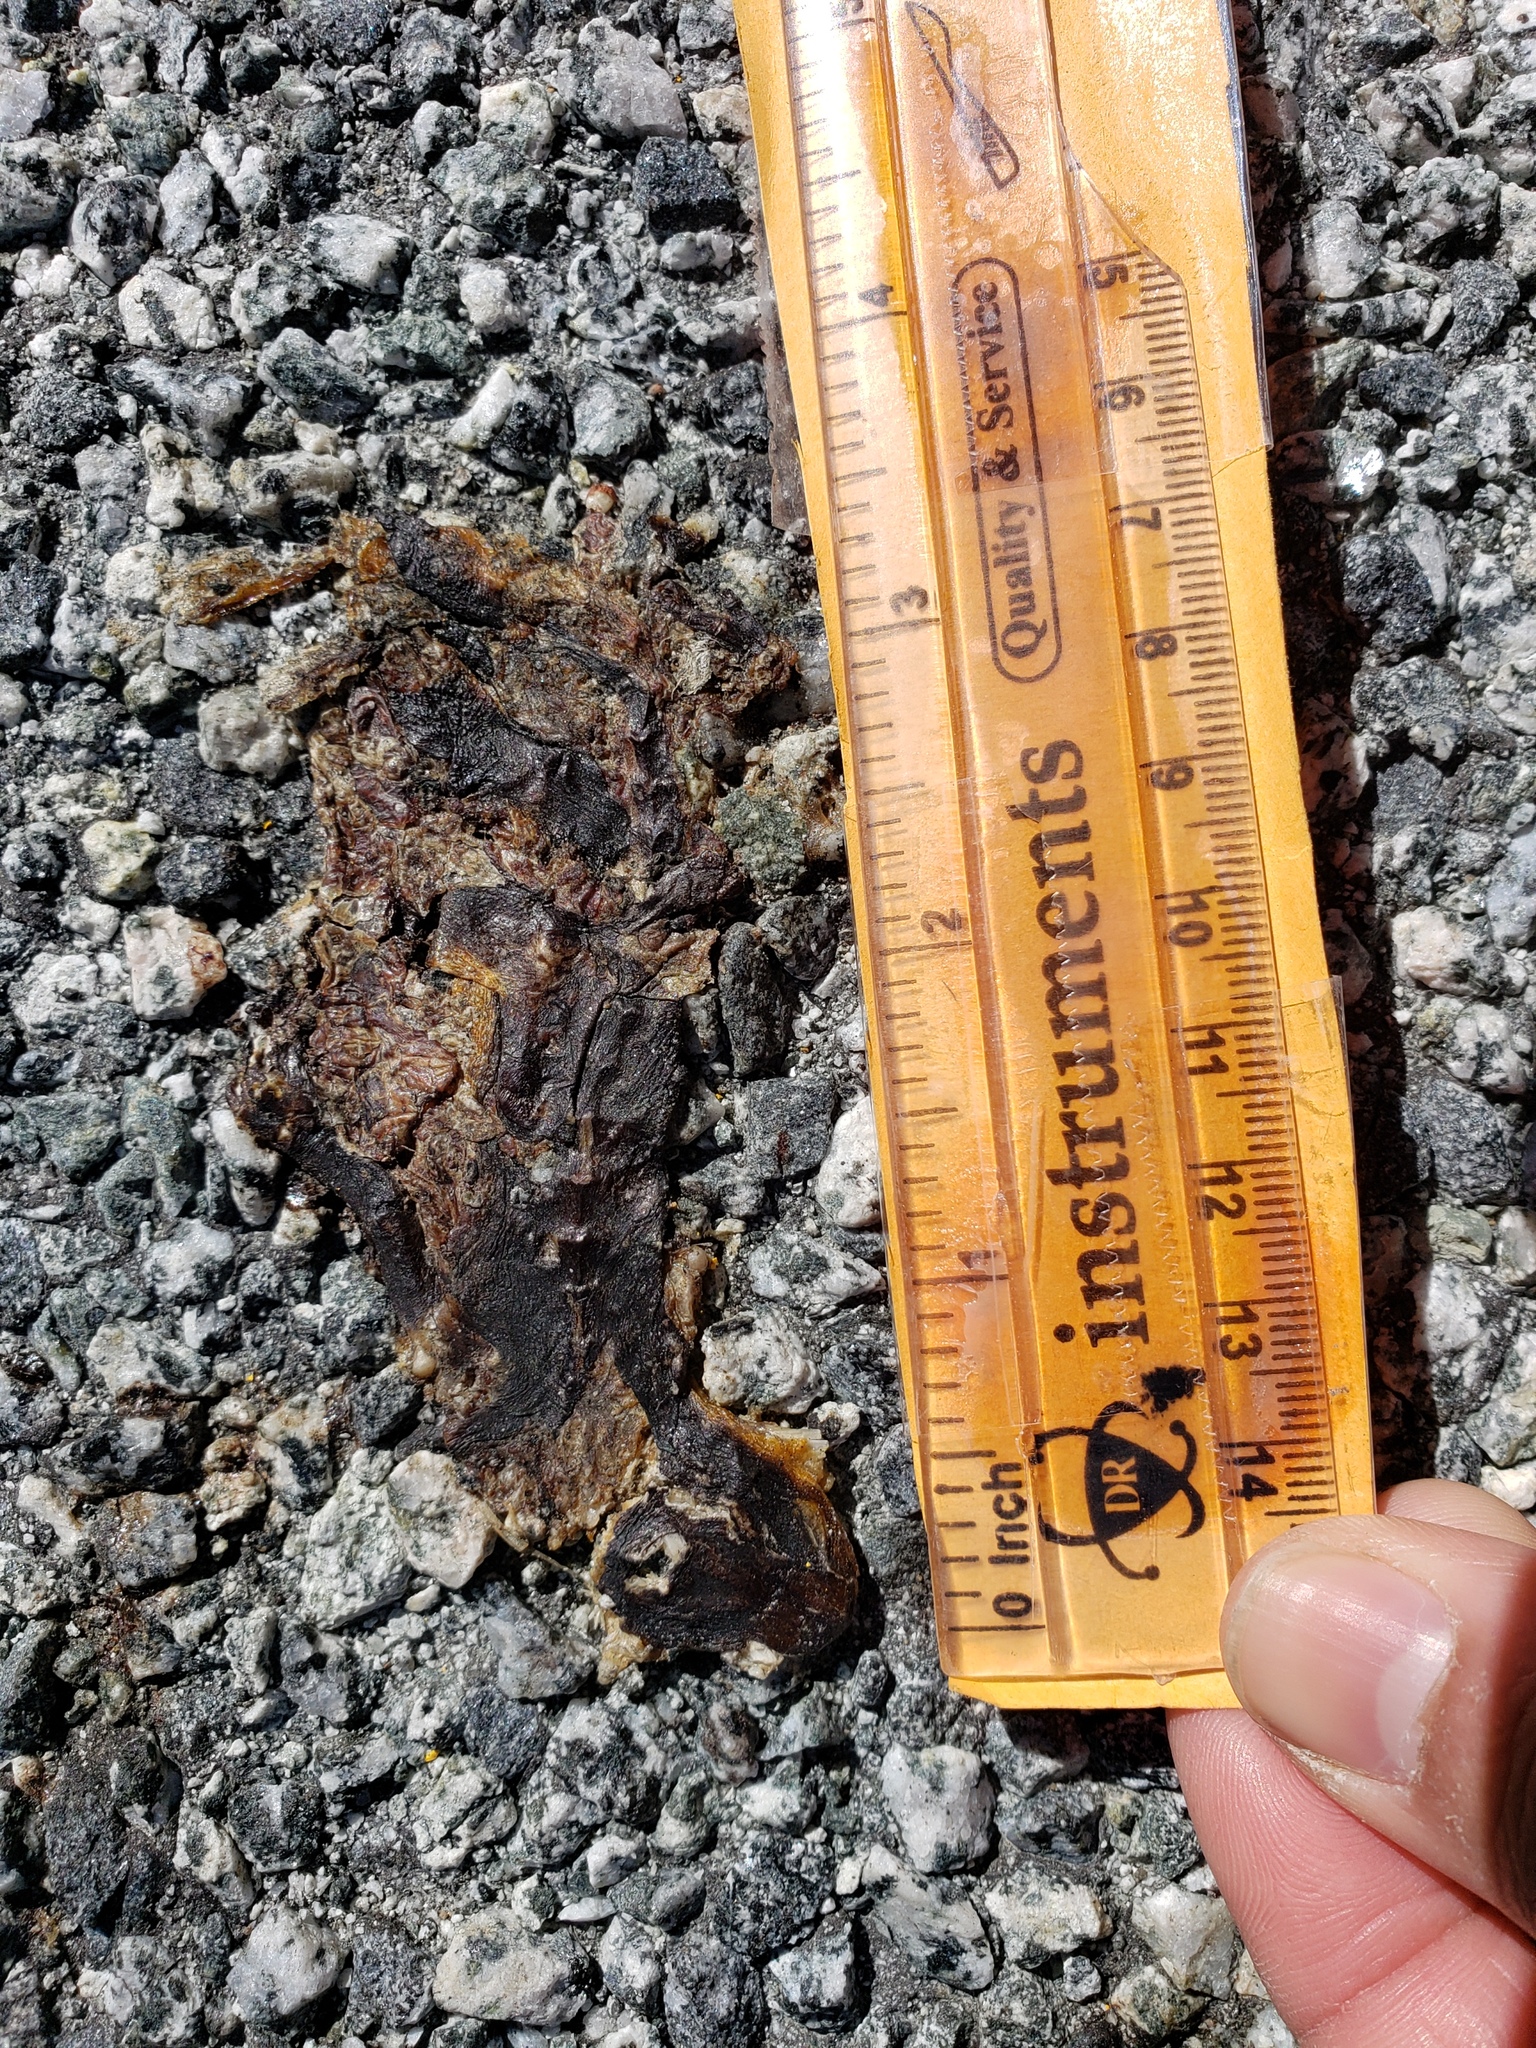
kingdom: Animalia
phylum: Chordata
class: Amphibia
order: Caudata
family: Salamandridae
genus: Taricha
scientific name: Taricha
